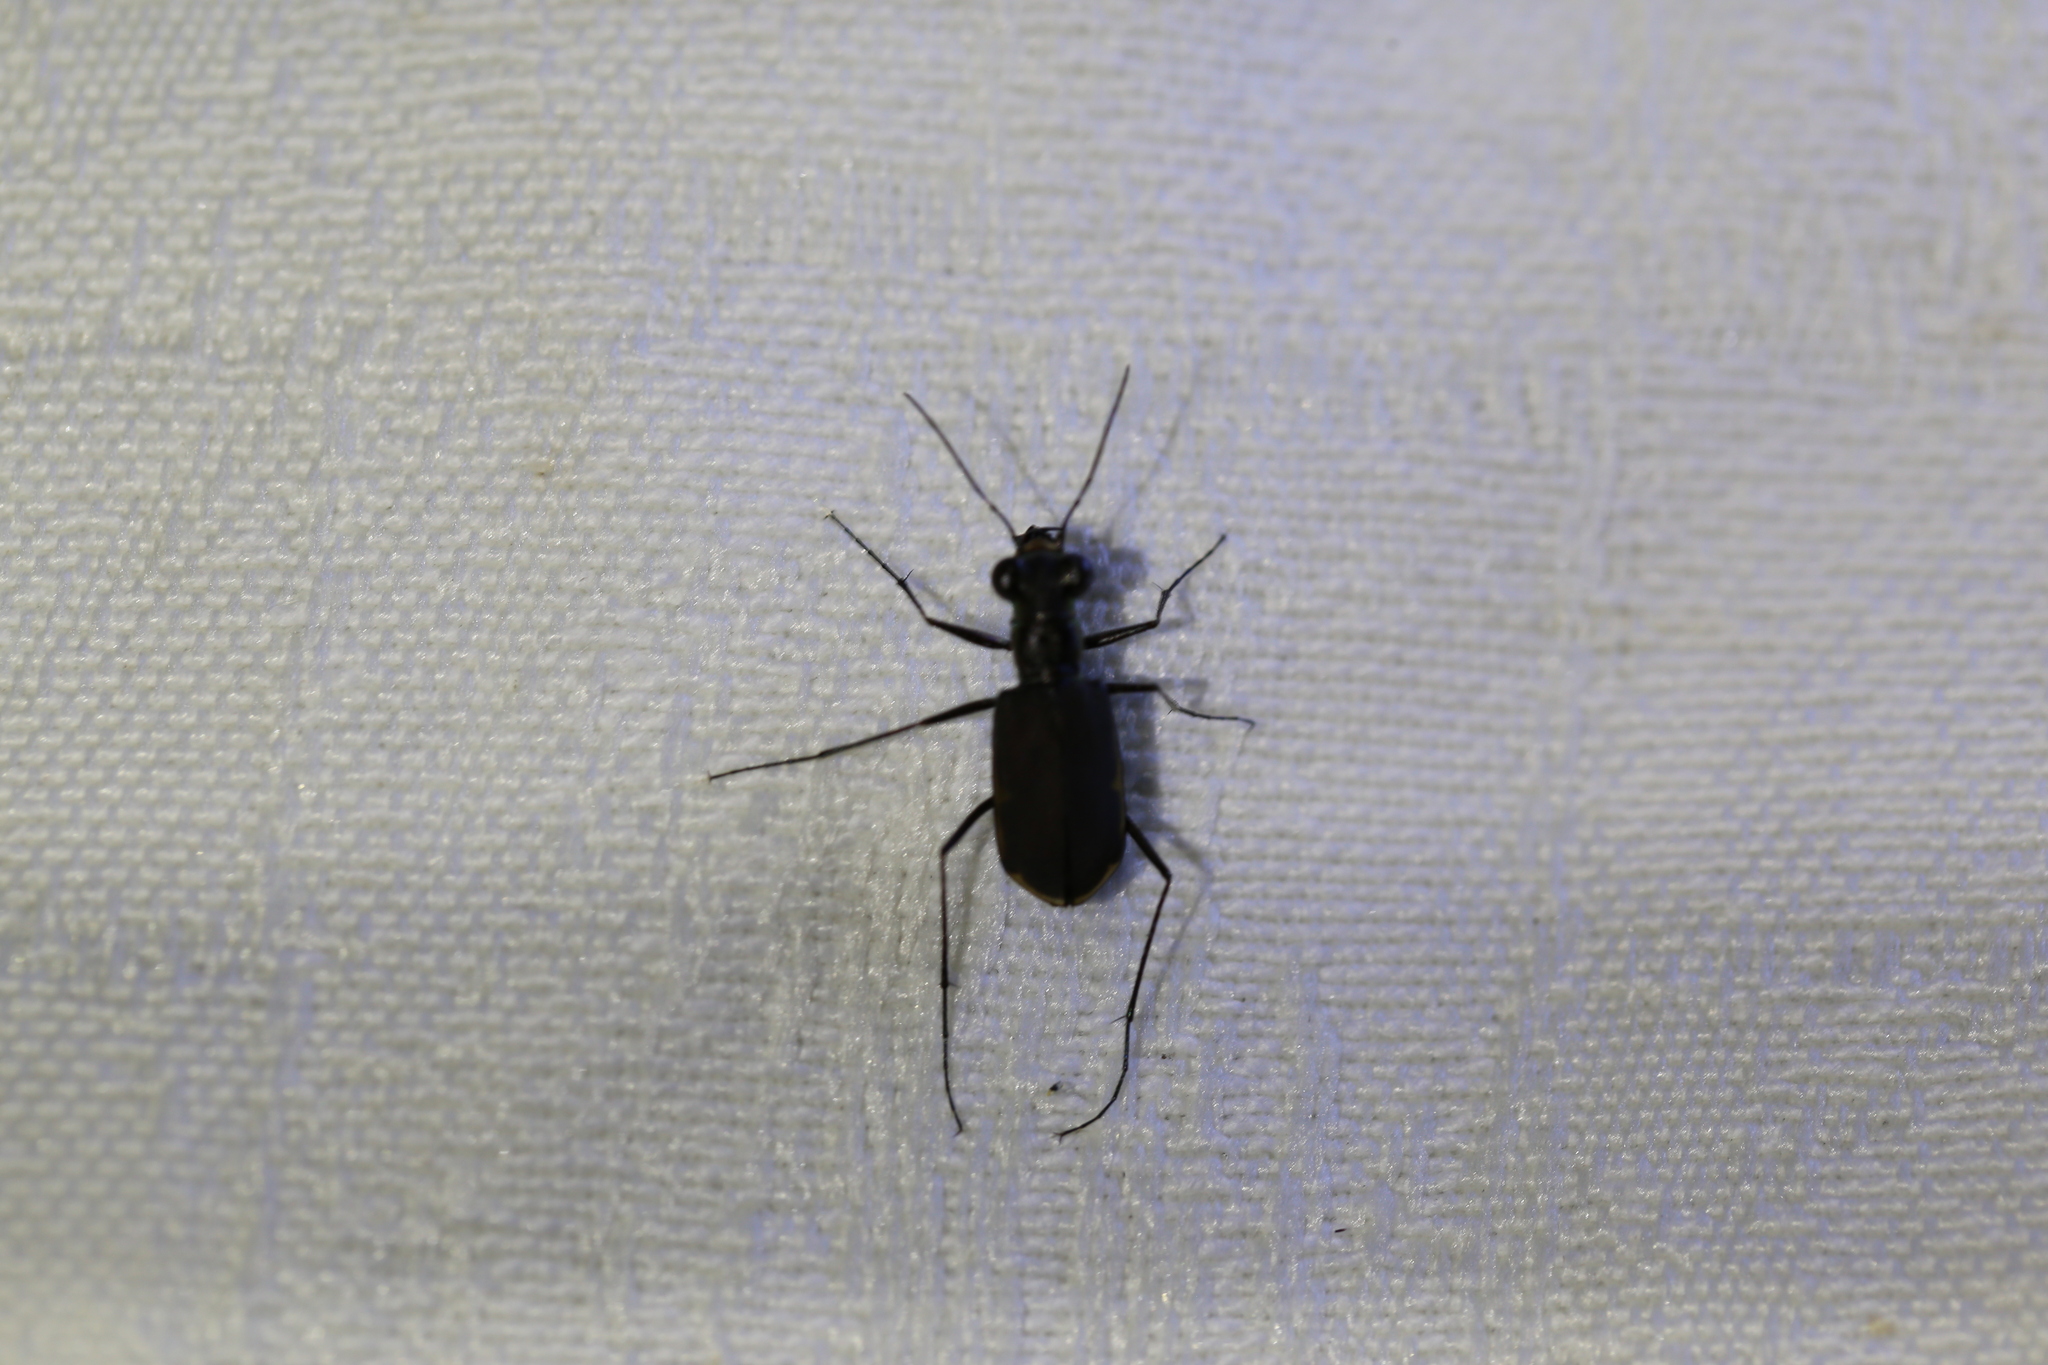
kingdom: Animalia
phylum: Arthropoda
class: Insecta
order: Coleoptera
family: Carabidae
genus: Myriochila
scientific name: Myriochila semicincta
